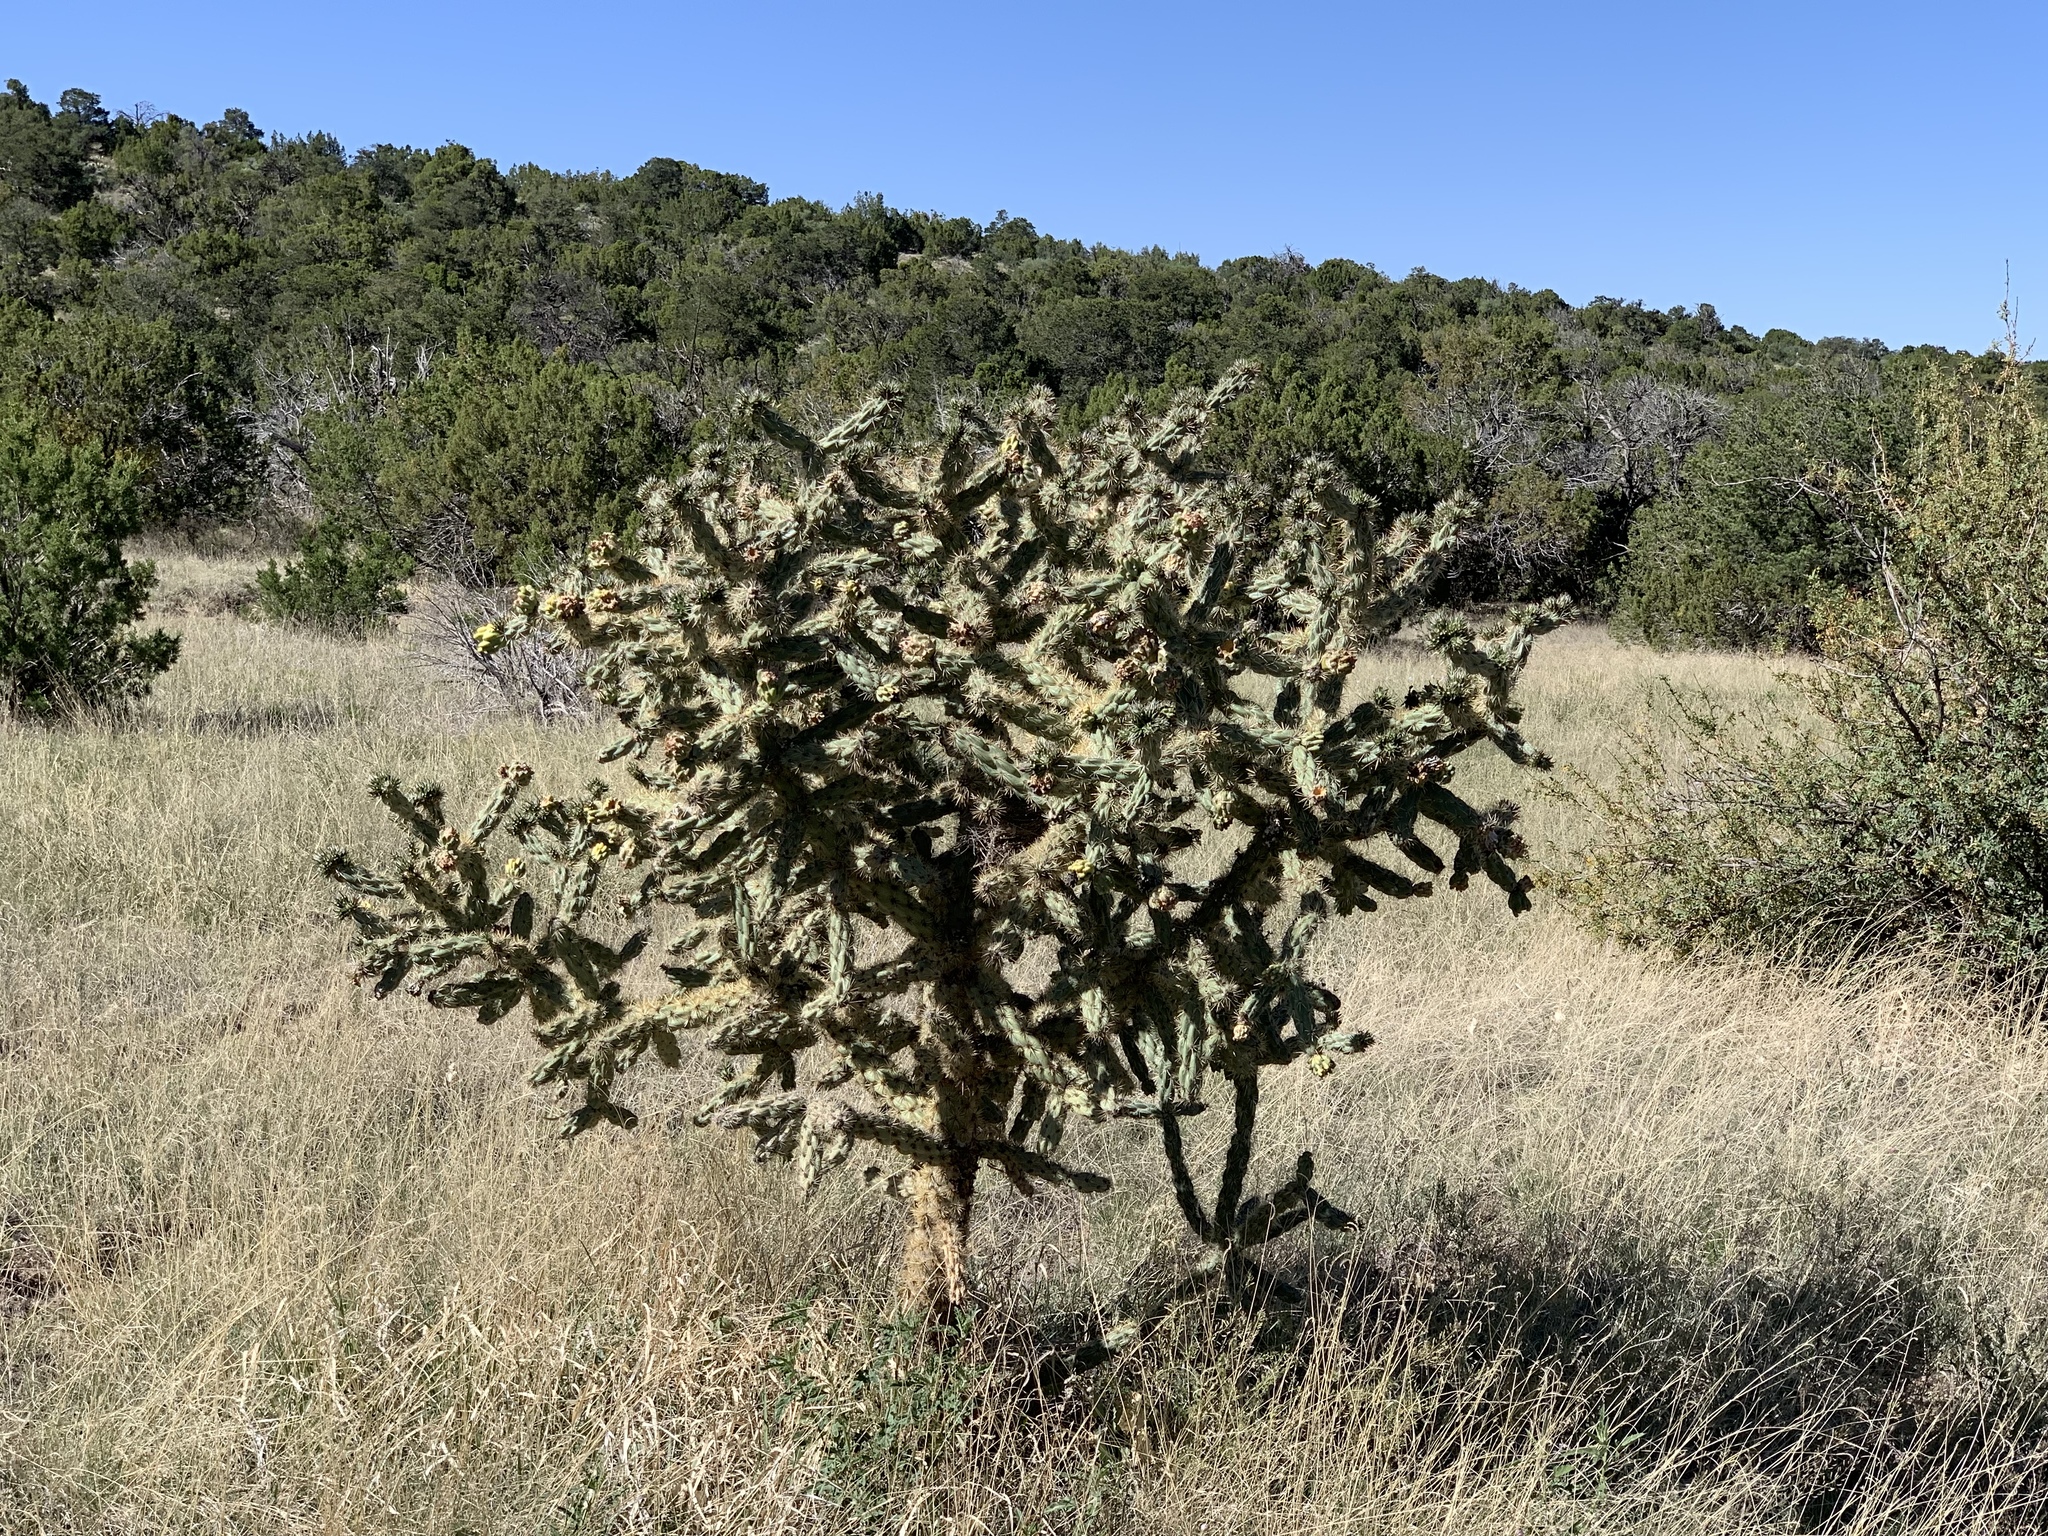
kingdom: Plantae
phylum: Tracheophyta
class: Magnoliopsida
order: Caryophyllales
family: Cactaceae
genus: Cylindropuntia
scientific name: Cylindropuntia imbricata
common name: Candelabrum cactus
